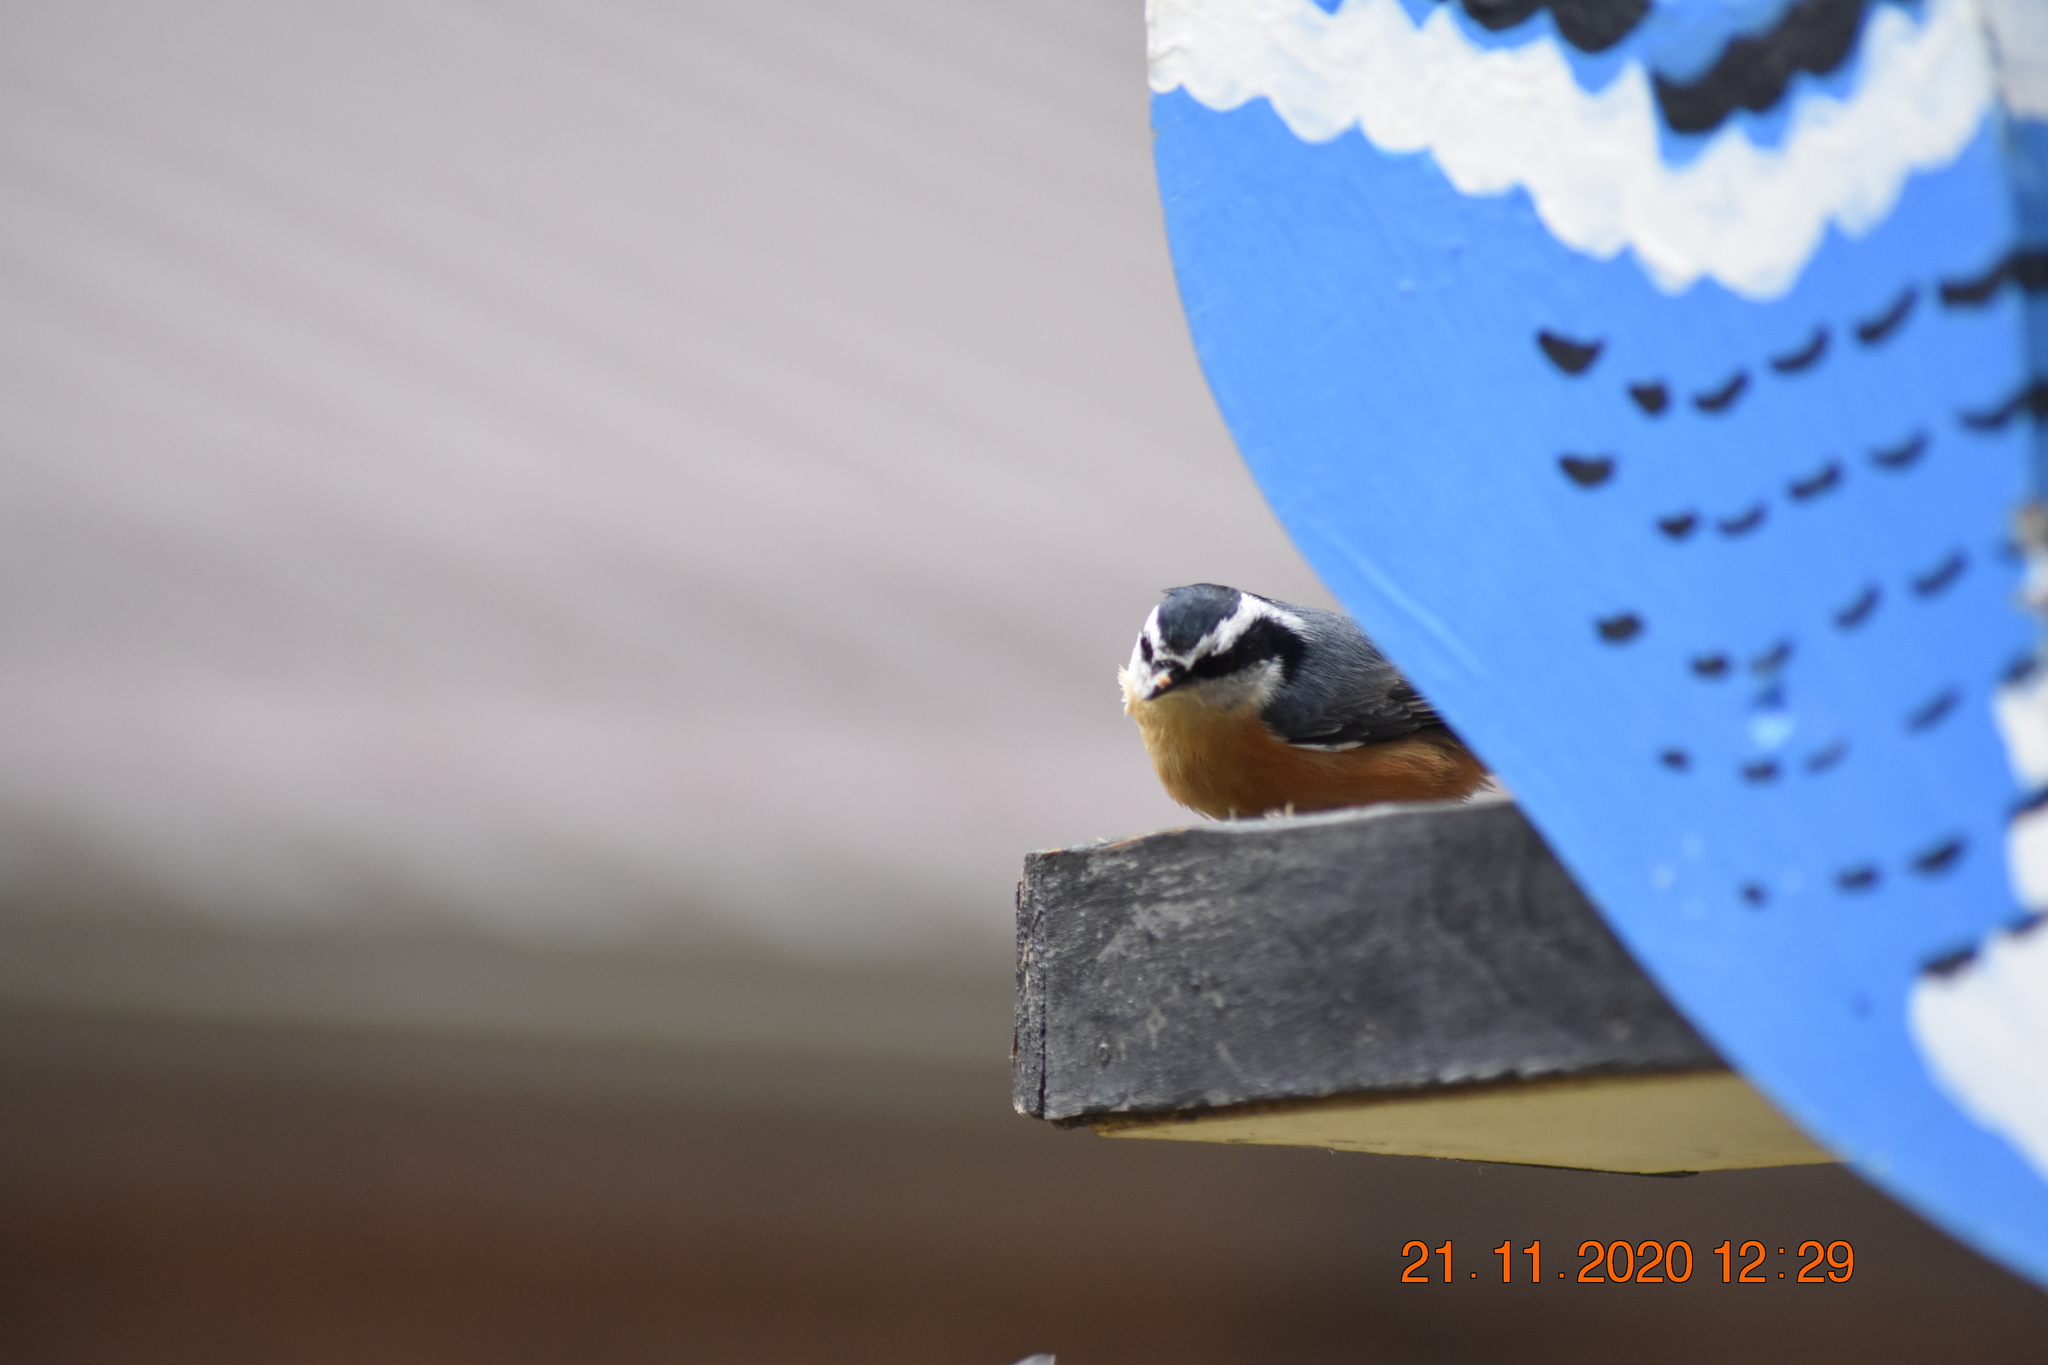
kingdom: Animalia
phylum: Chordata
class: Aves
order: Passeriformes
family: Sittidae
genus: Sitta
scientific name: Sitta canadensis
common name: Red-breasted nuthatch
